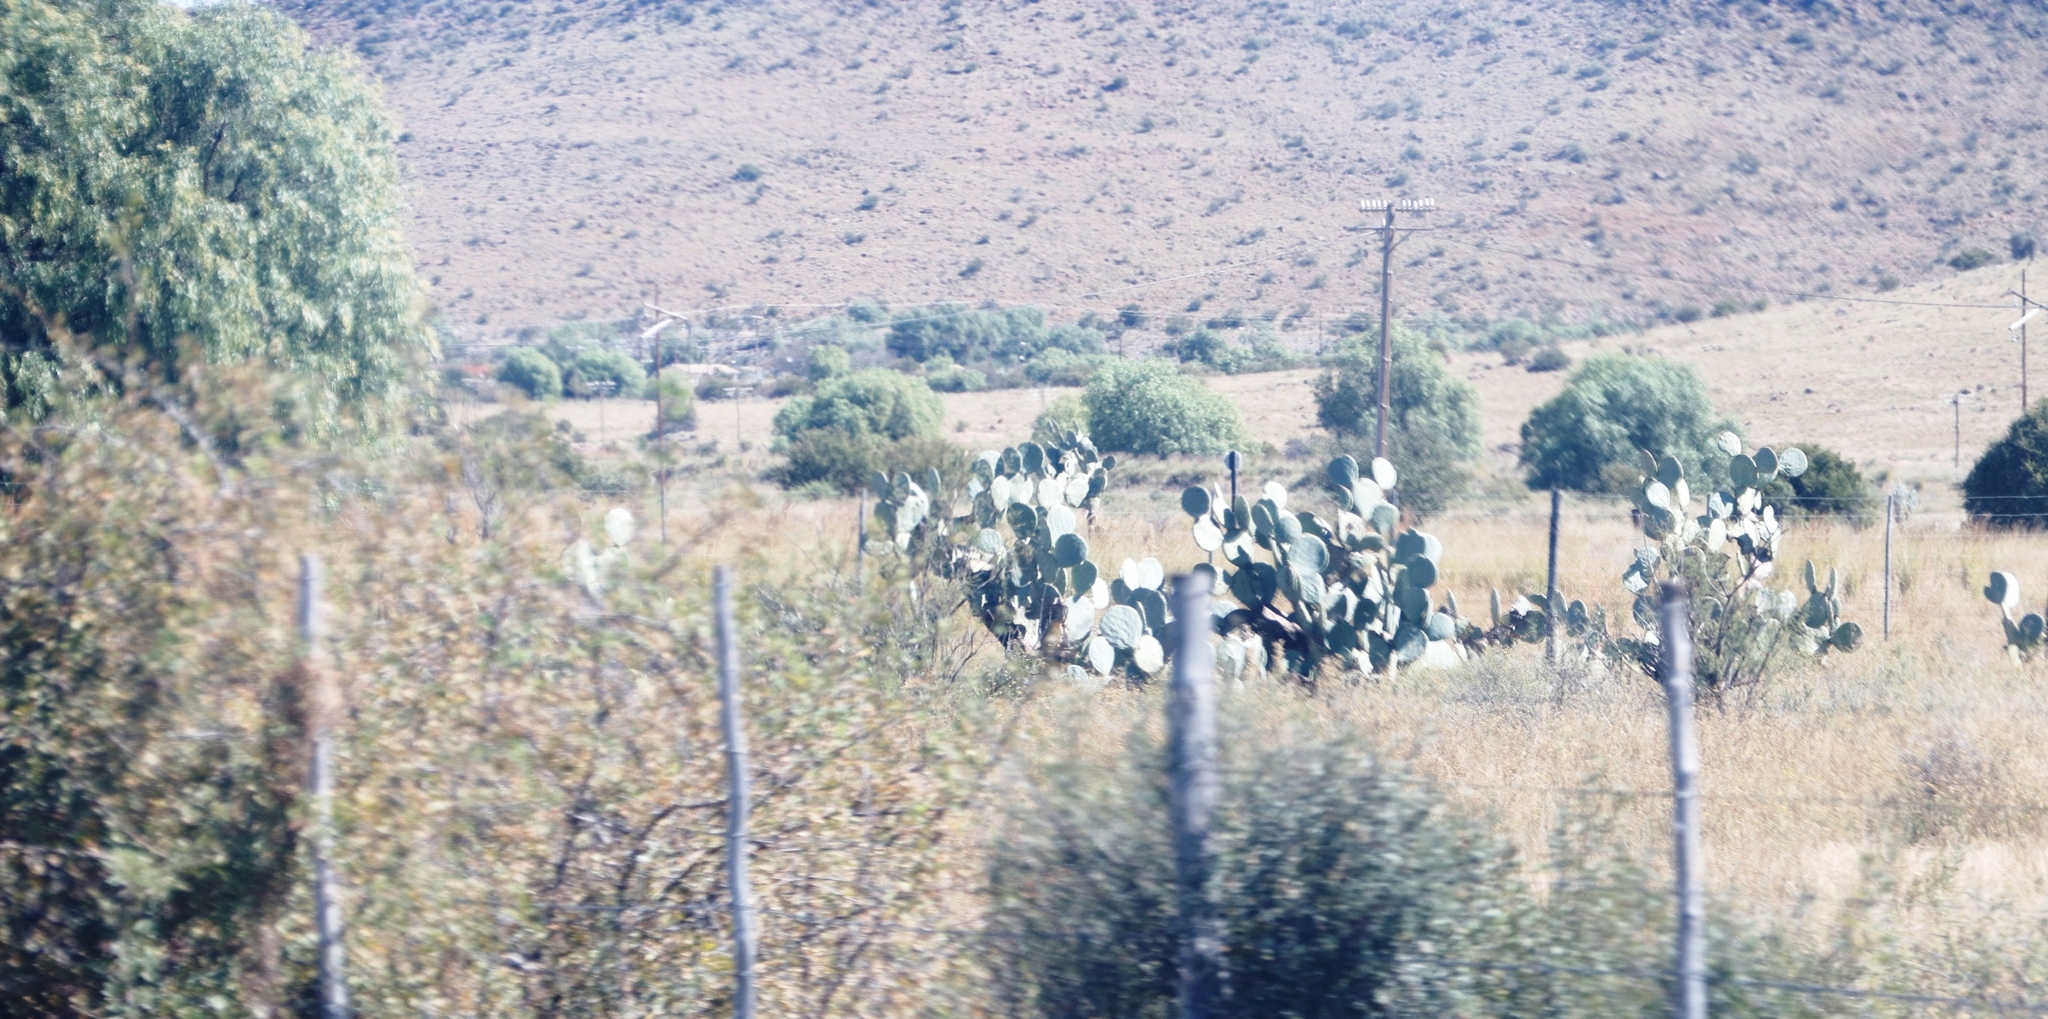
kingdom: Plantae
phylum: Tracheophyta
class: Magnoliopsida
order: Caryophyllales
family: Cactaceae
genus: Opuntia
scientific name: Opuntia robusta
